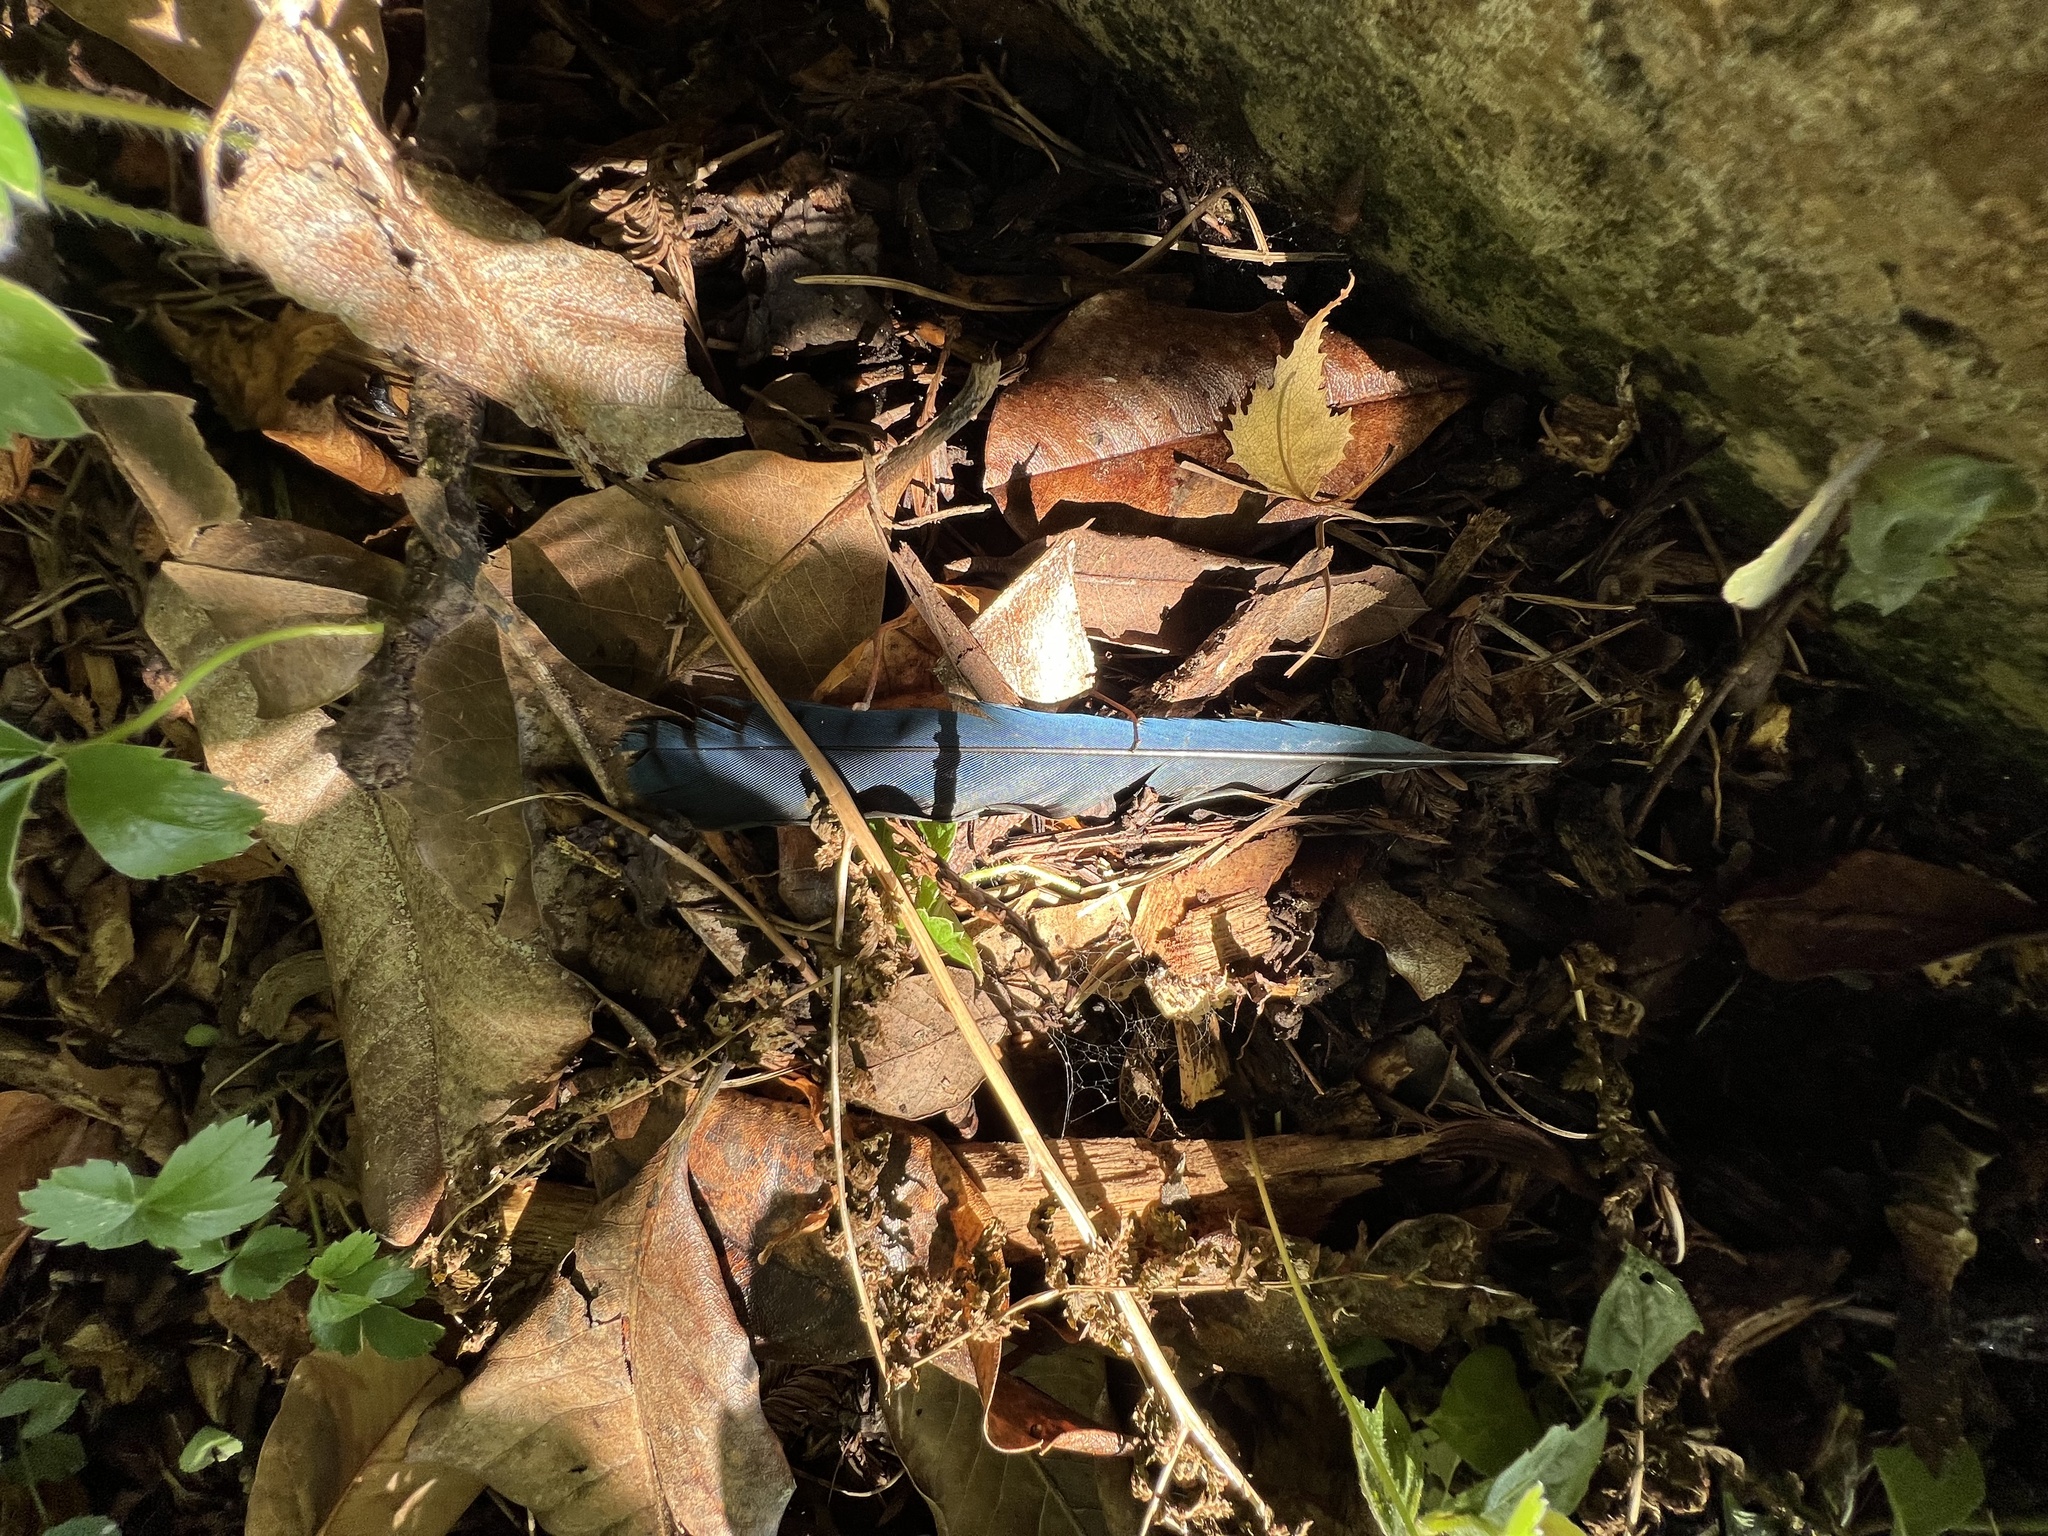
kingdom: Animalia
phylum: Chordata
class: Aves
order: Passeriformes
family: Corvidae
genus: Cyanocitta
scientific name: Cyanocitta stelleri
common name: Steller's jay
